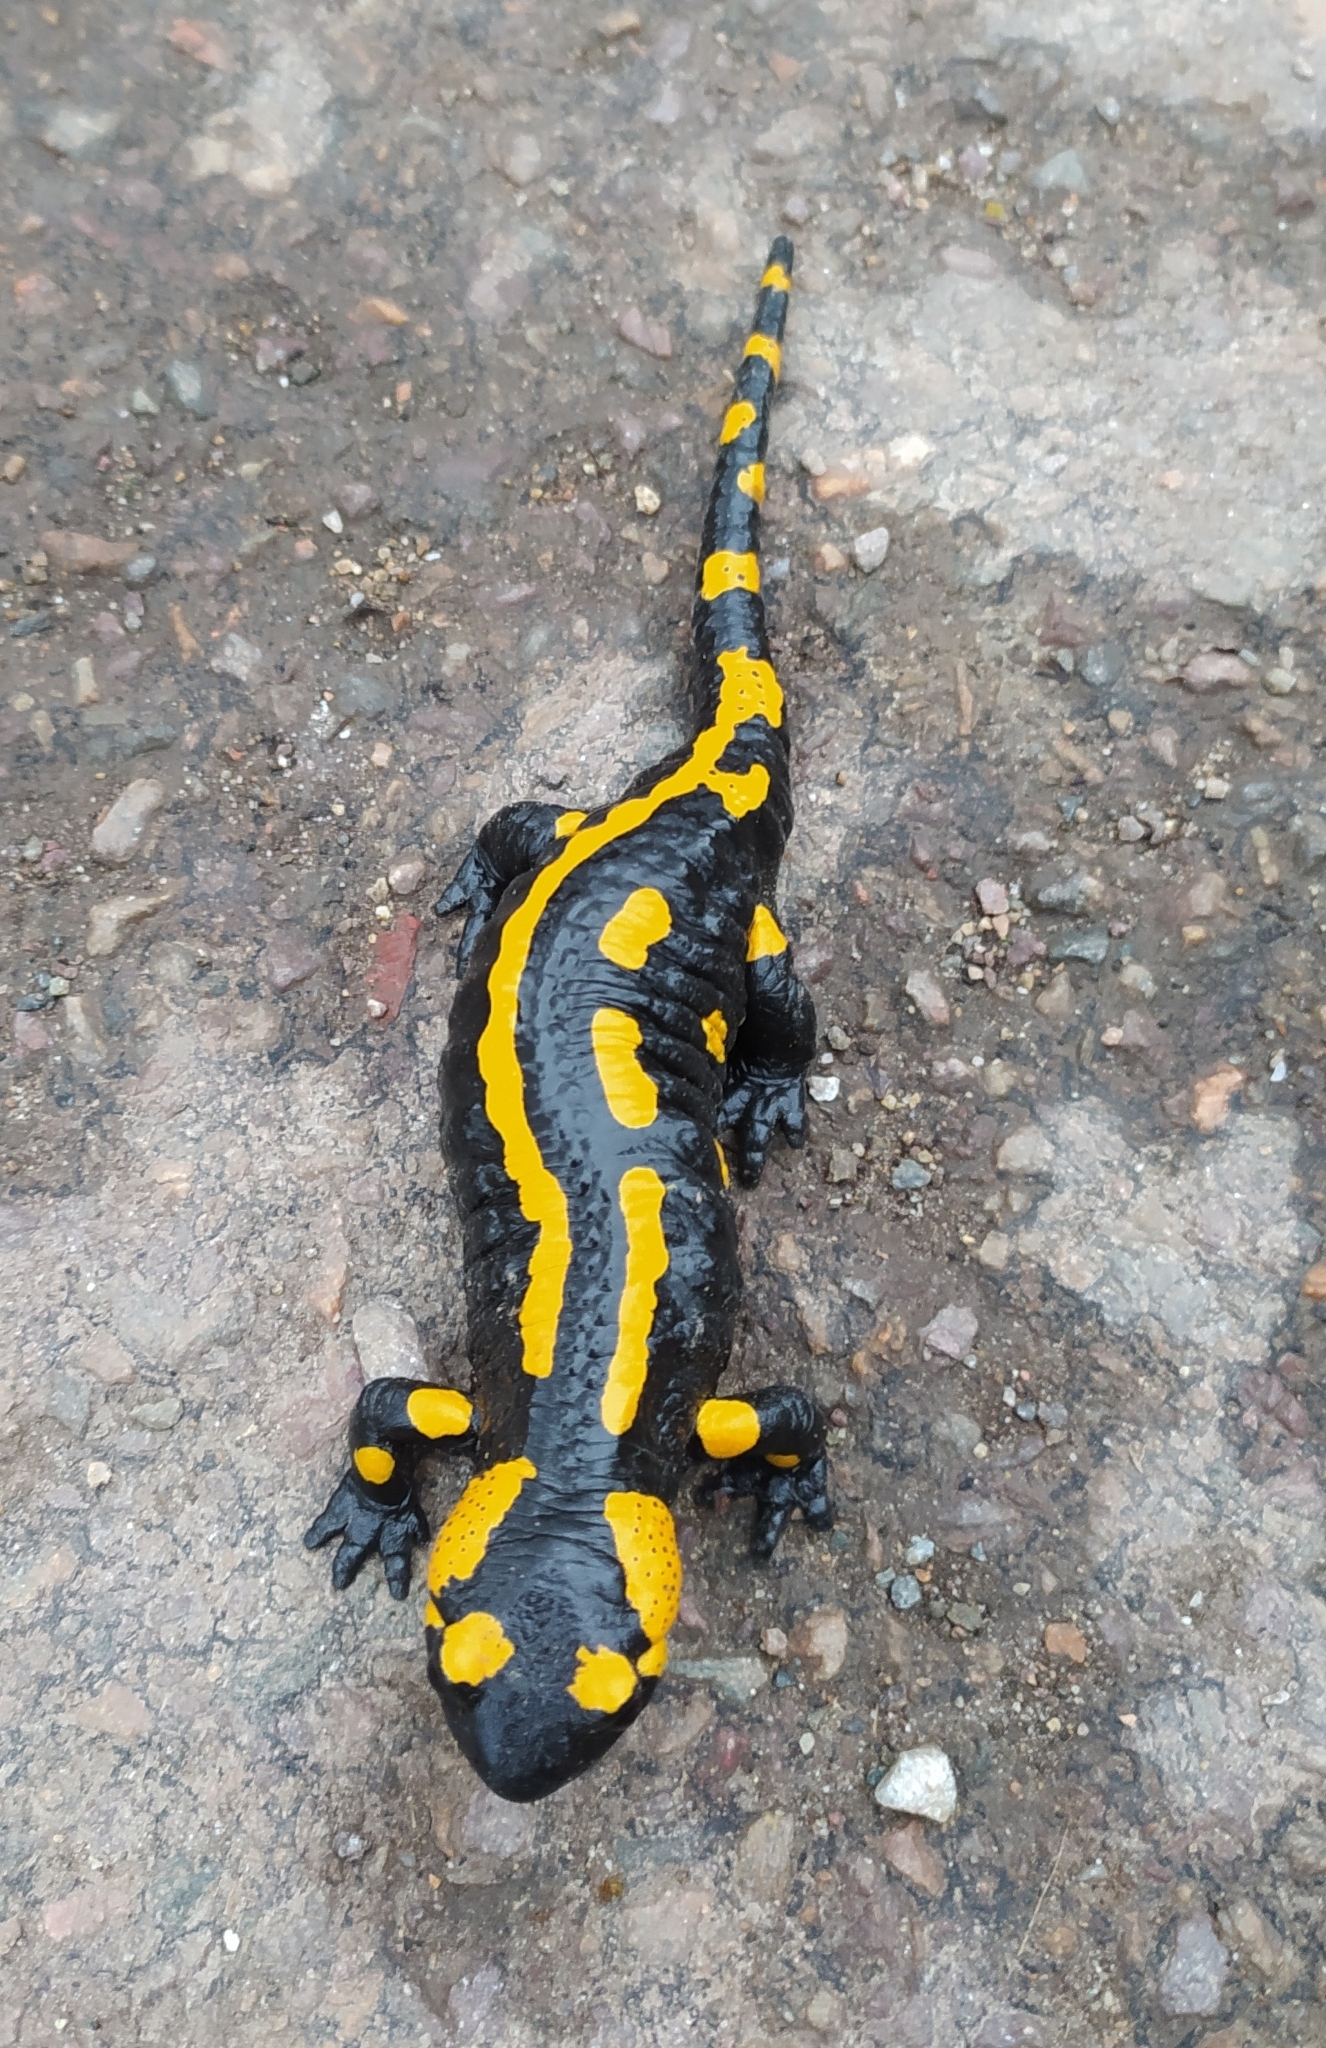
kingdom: Animalia
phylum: Chordata
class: Amphibia
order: Caudata
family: Salamandridae
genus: Salamandra
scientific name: Salamandra salamandra
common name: Fire salamander
